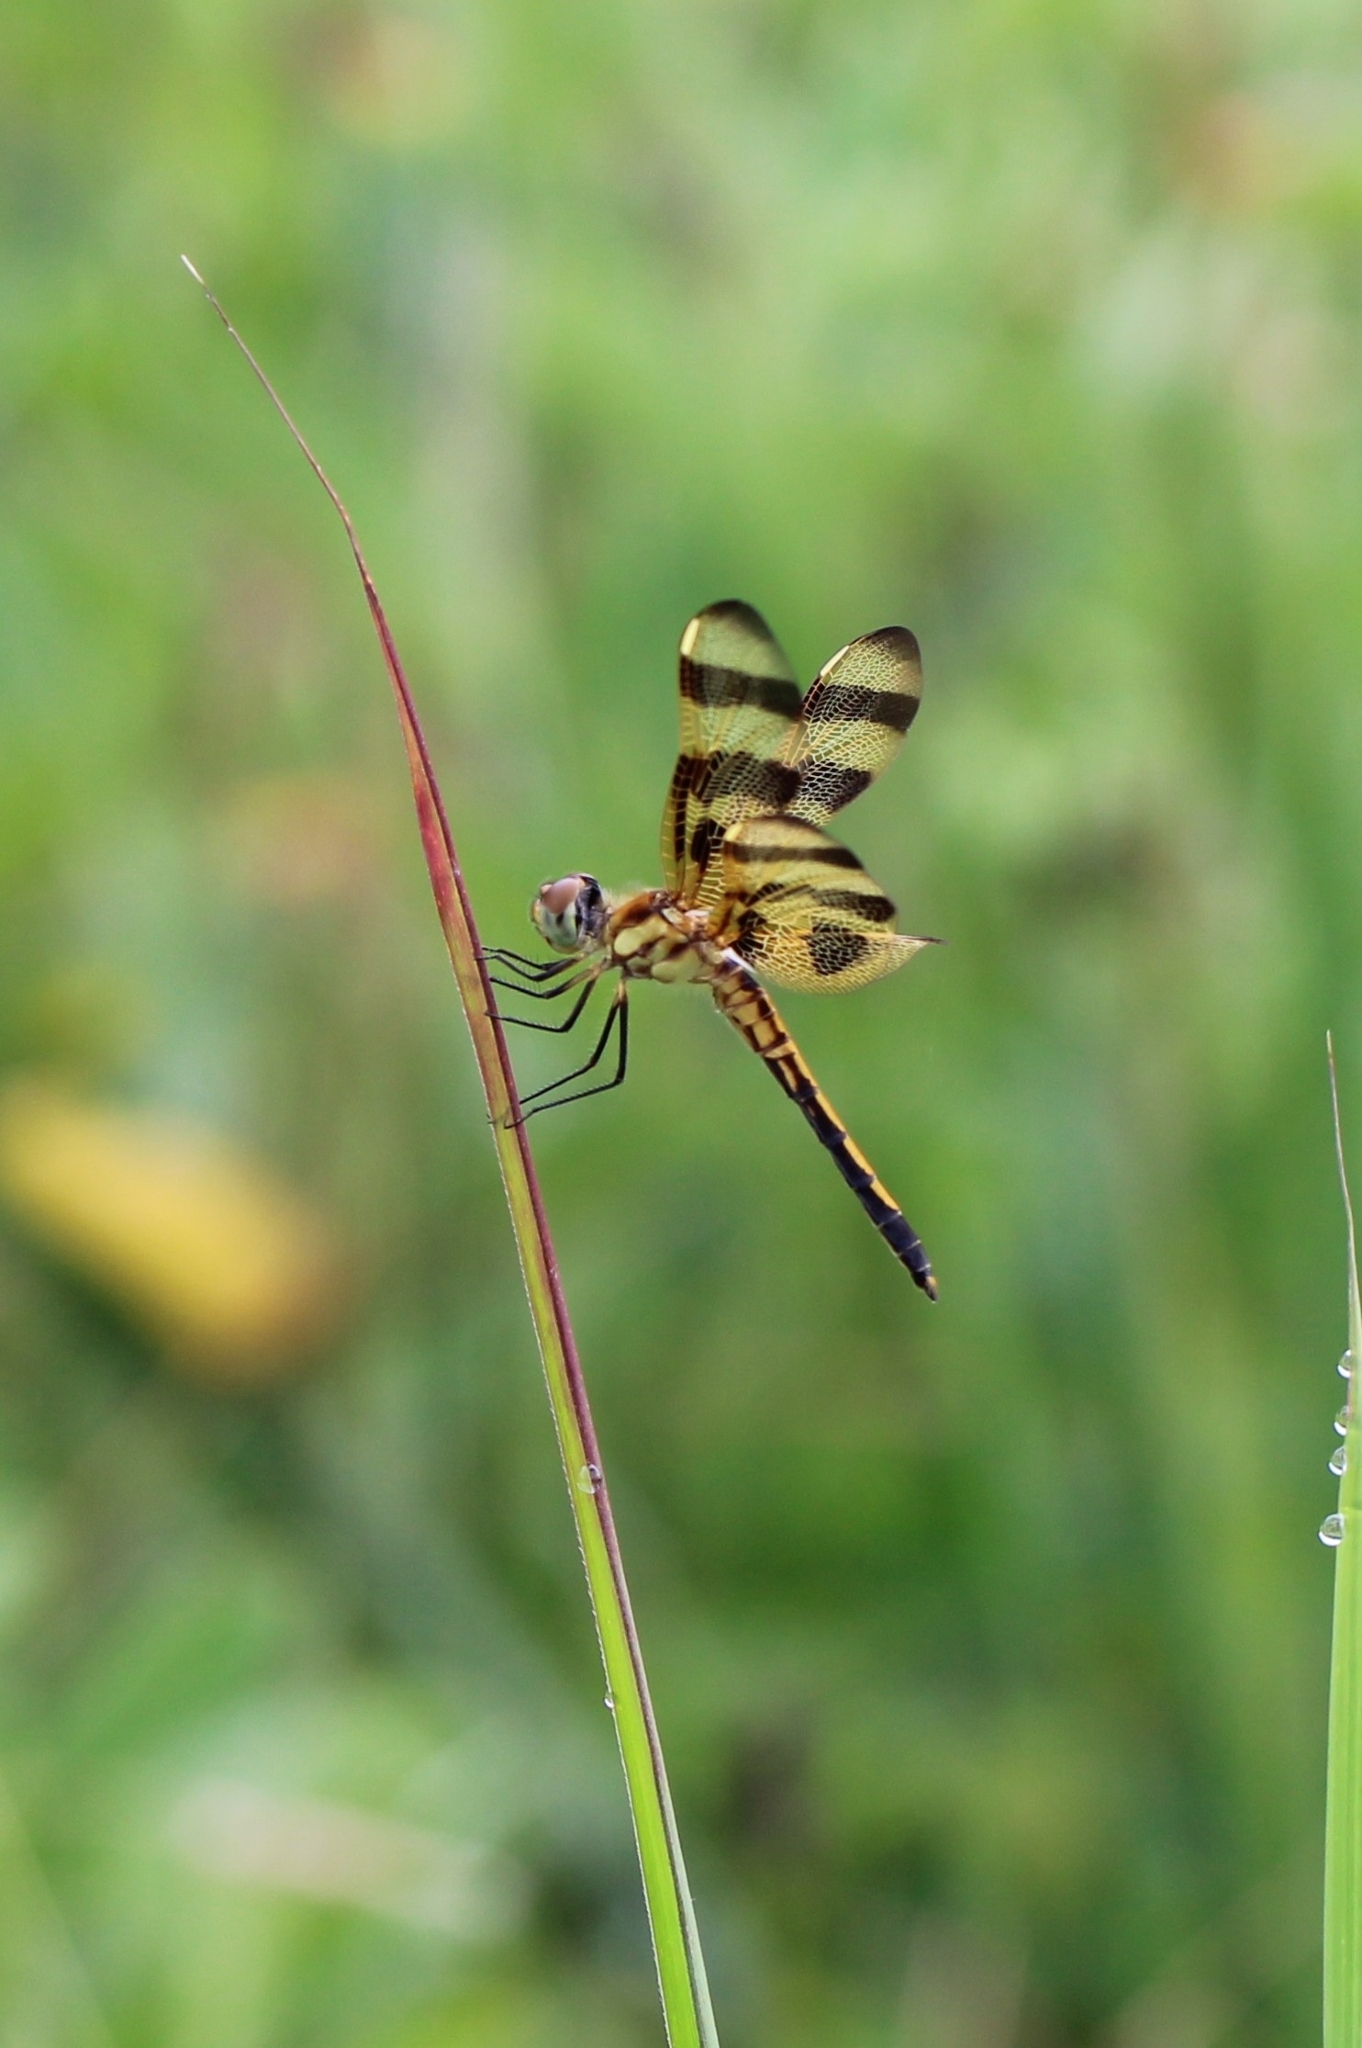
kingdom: Animalia
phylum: Arthropoda
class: Insecta
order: Odonata
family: Libellulidae
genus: Celithemis
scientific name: Celithemis eponina
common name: Halloween pennant
